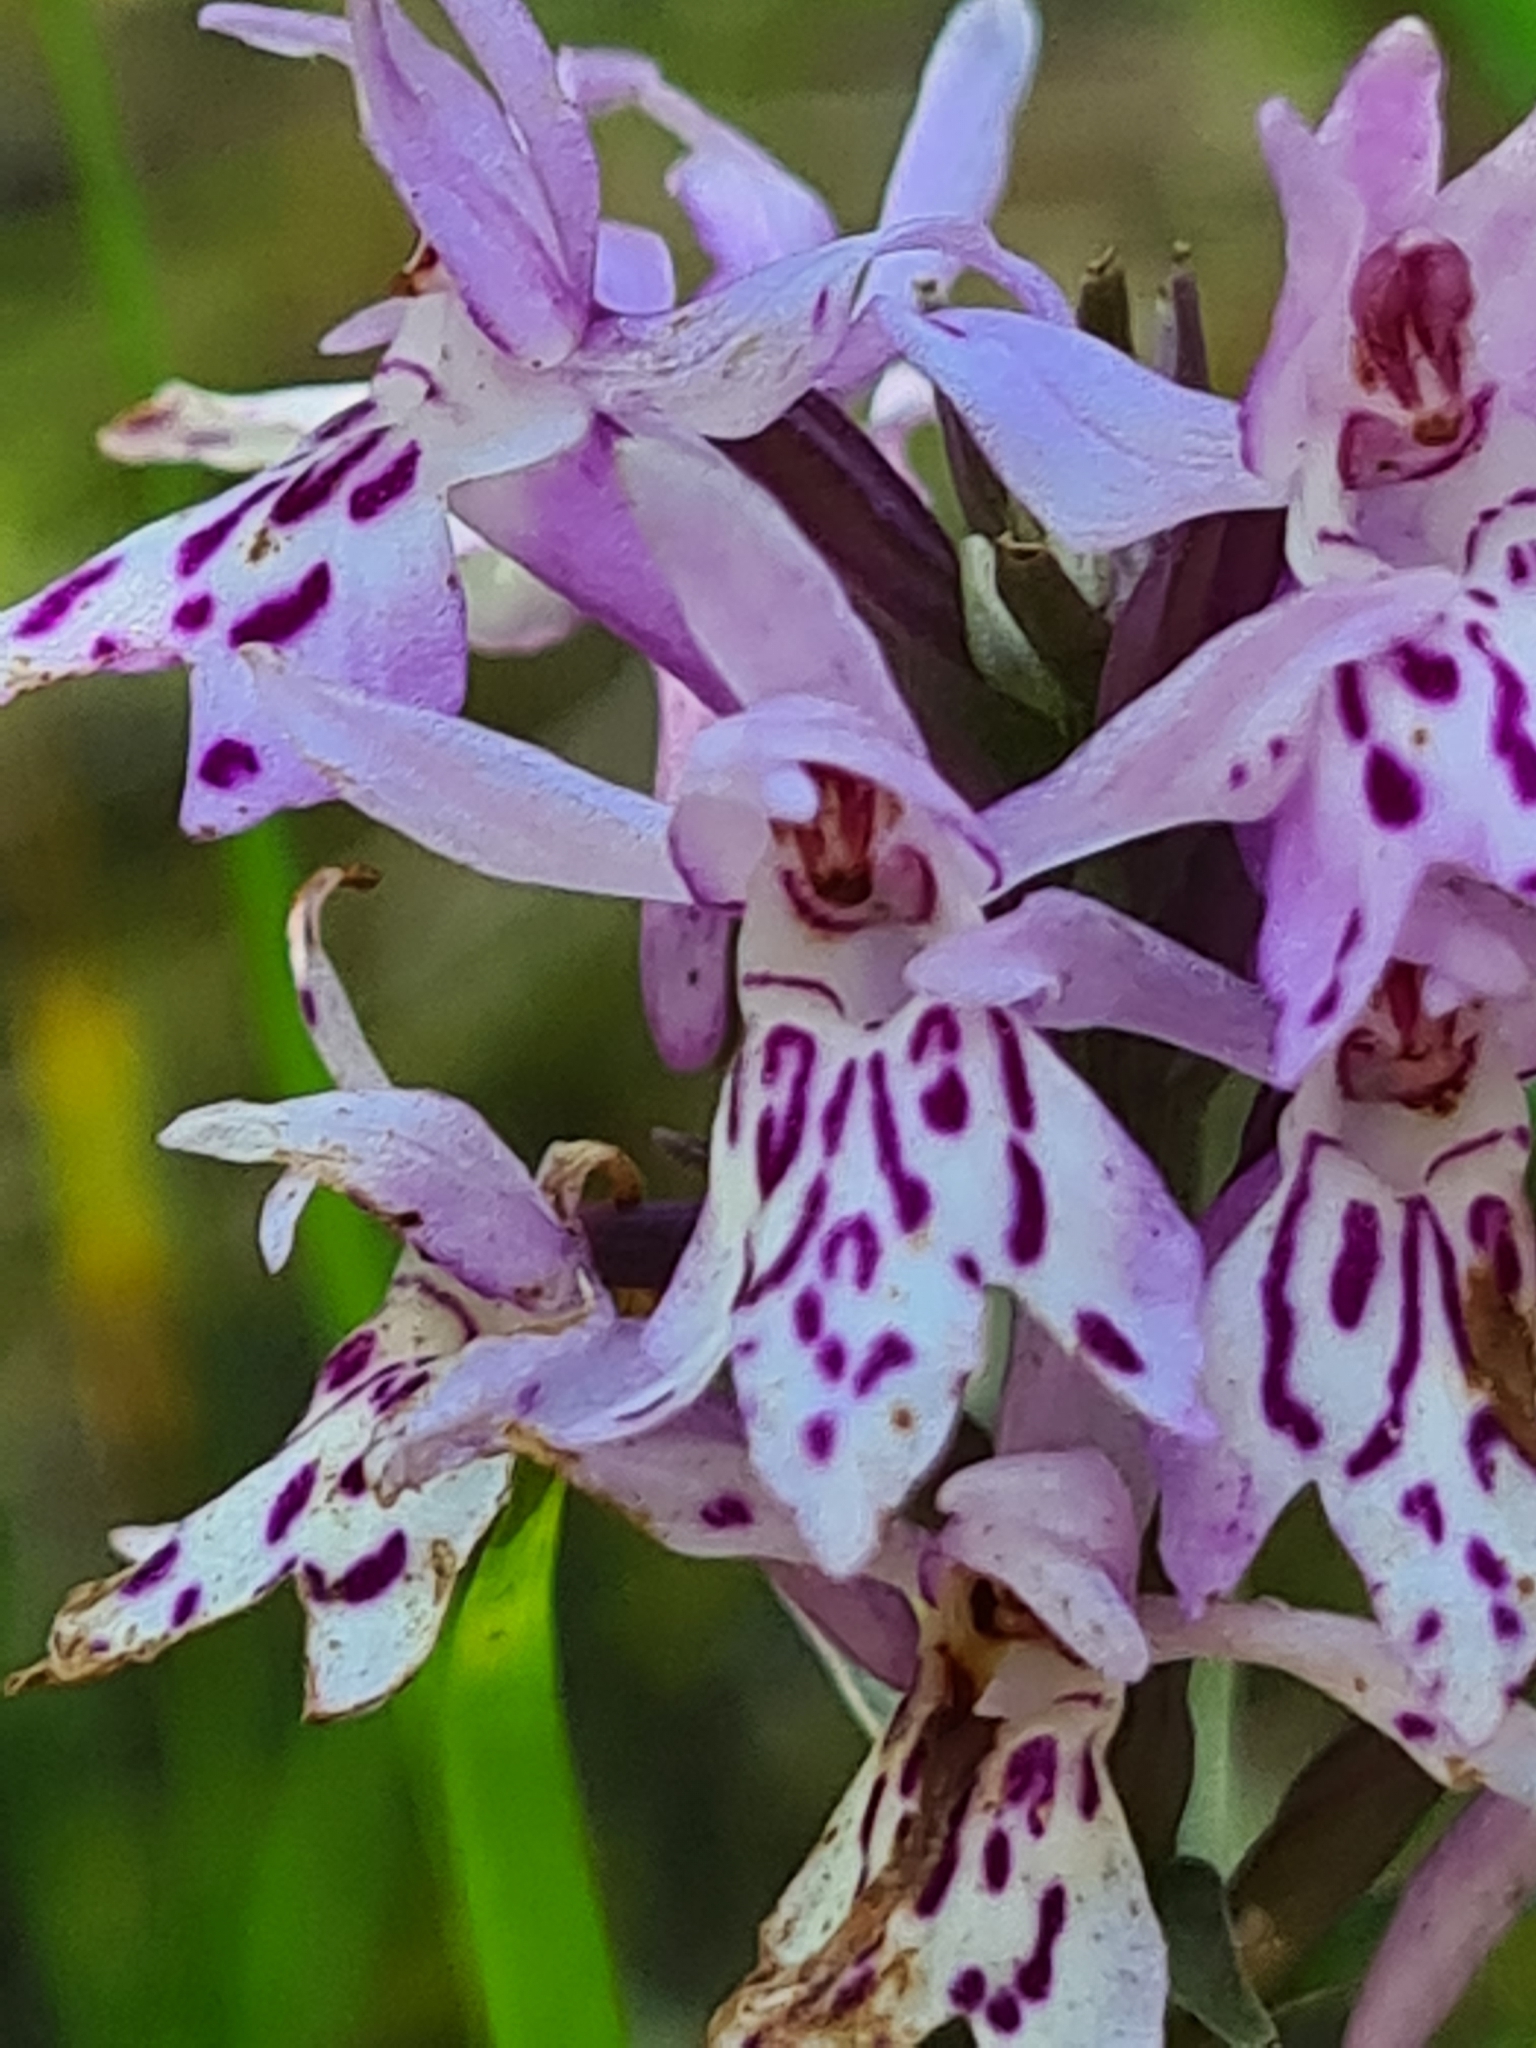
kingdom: Plantae
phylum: Tracheophyta
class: Liliopsida
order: Asparagales
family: Orchidaceae
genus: Dactylorhiza
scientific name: Dactylorhiza maculata
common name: Heath spotted-orchid
